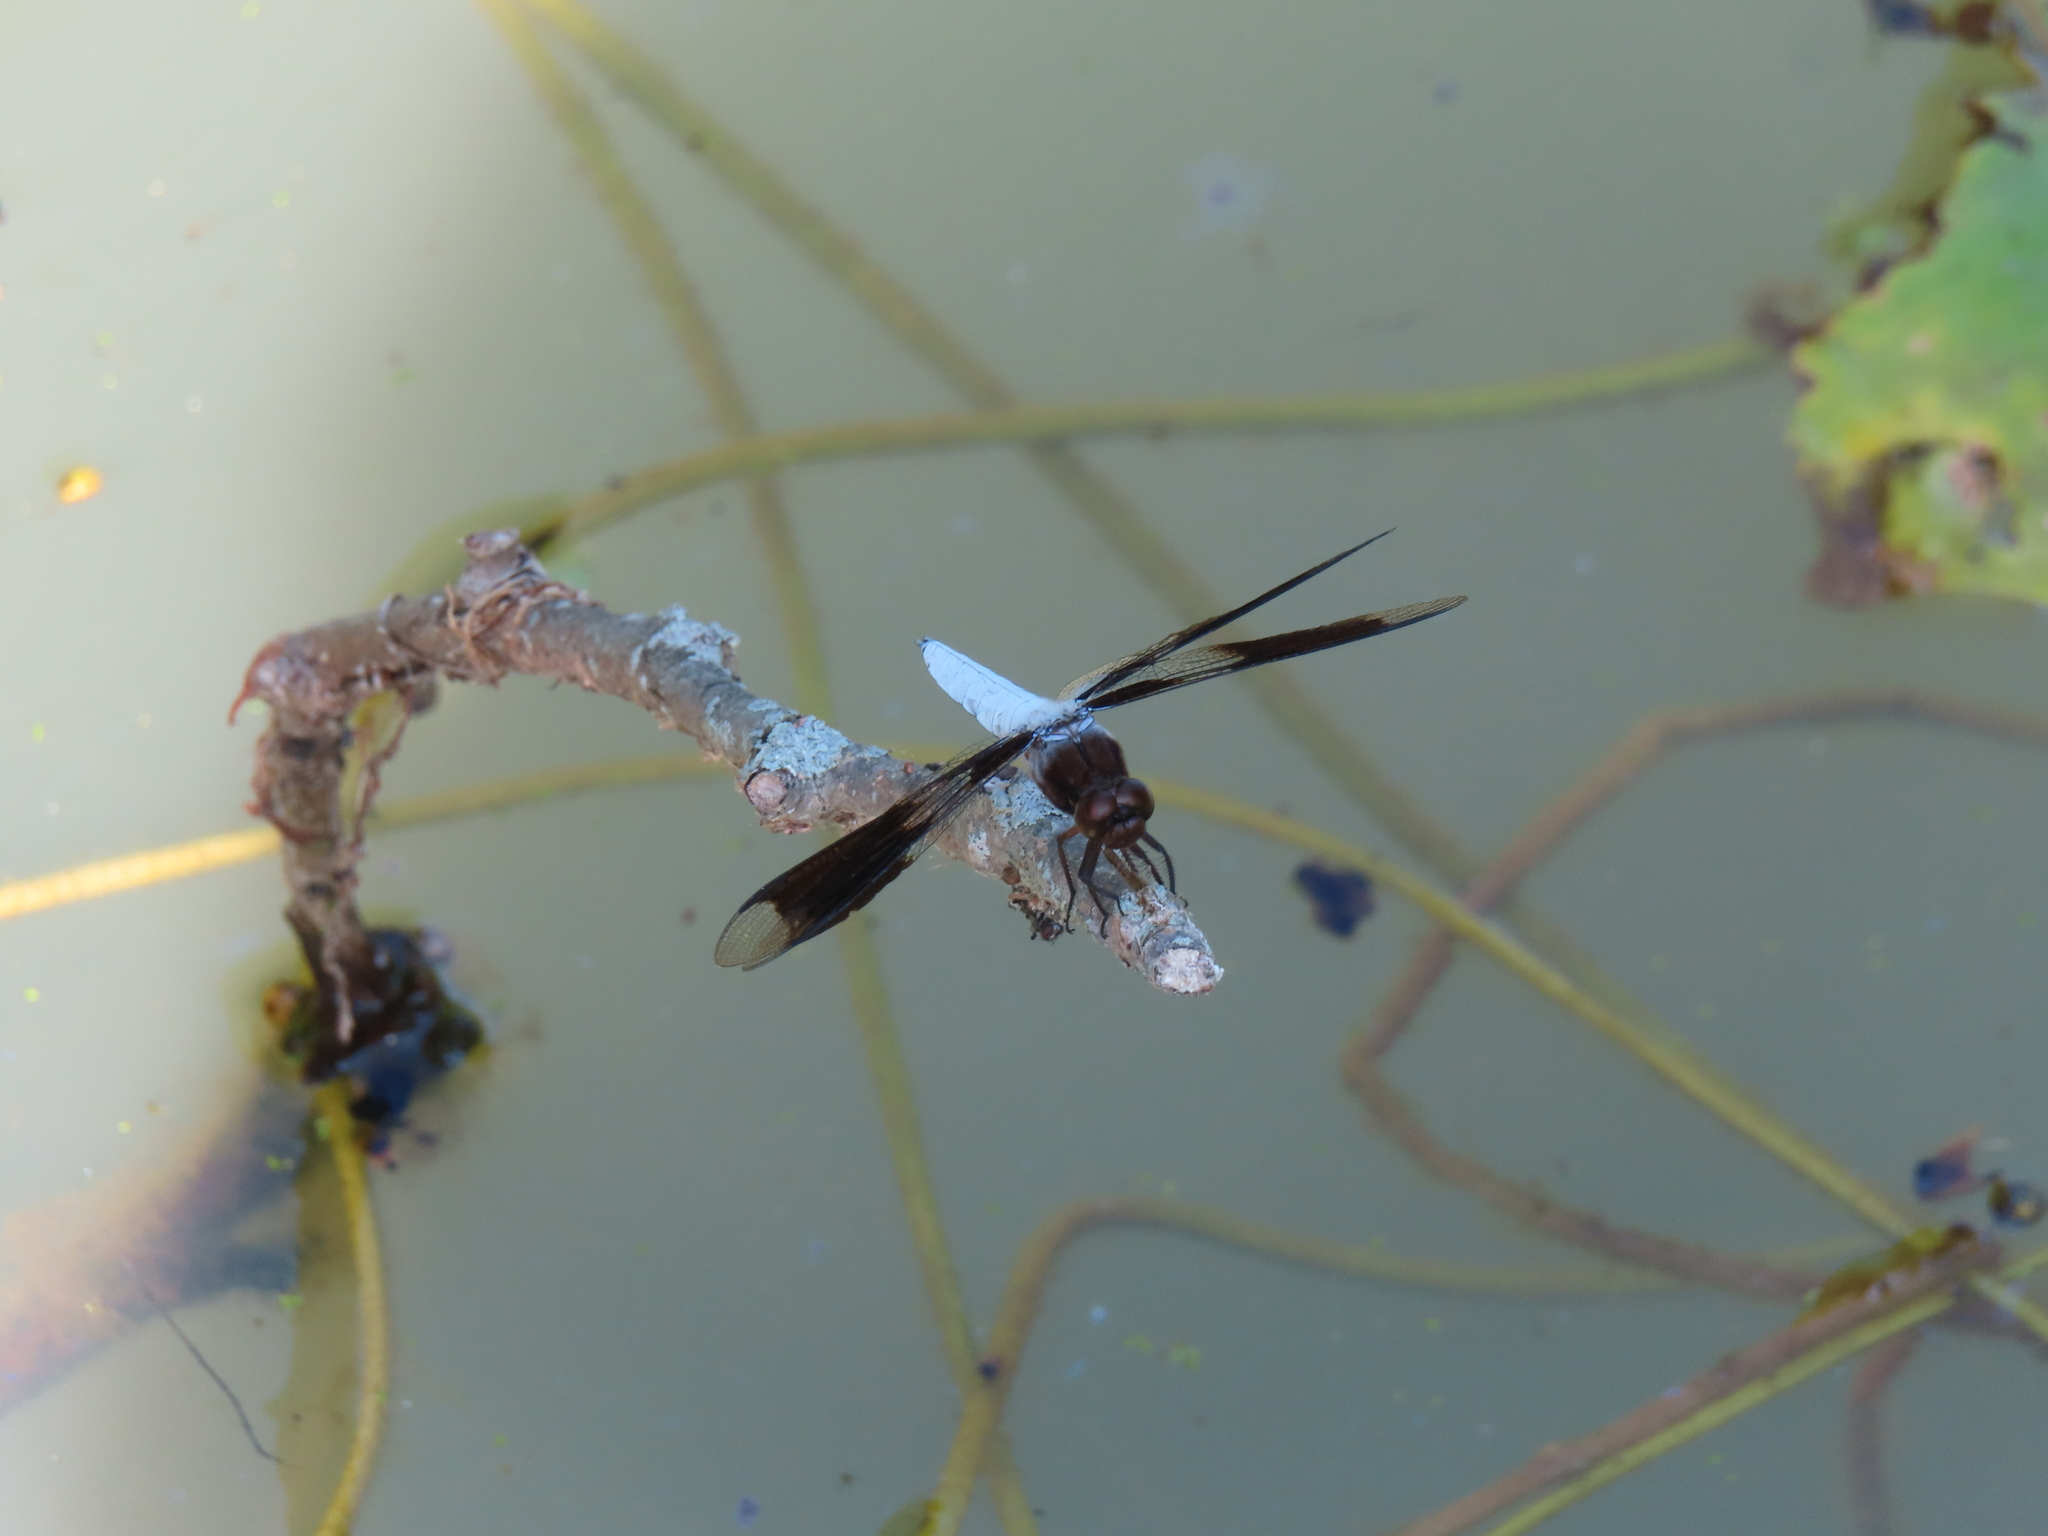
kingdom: Animalia
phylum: Arthropoda
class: Insecta
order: Odonata
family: Libellulidae
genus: Plathemis
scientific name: Plathemis lydia
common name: Common whitetail
